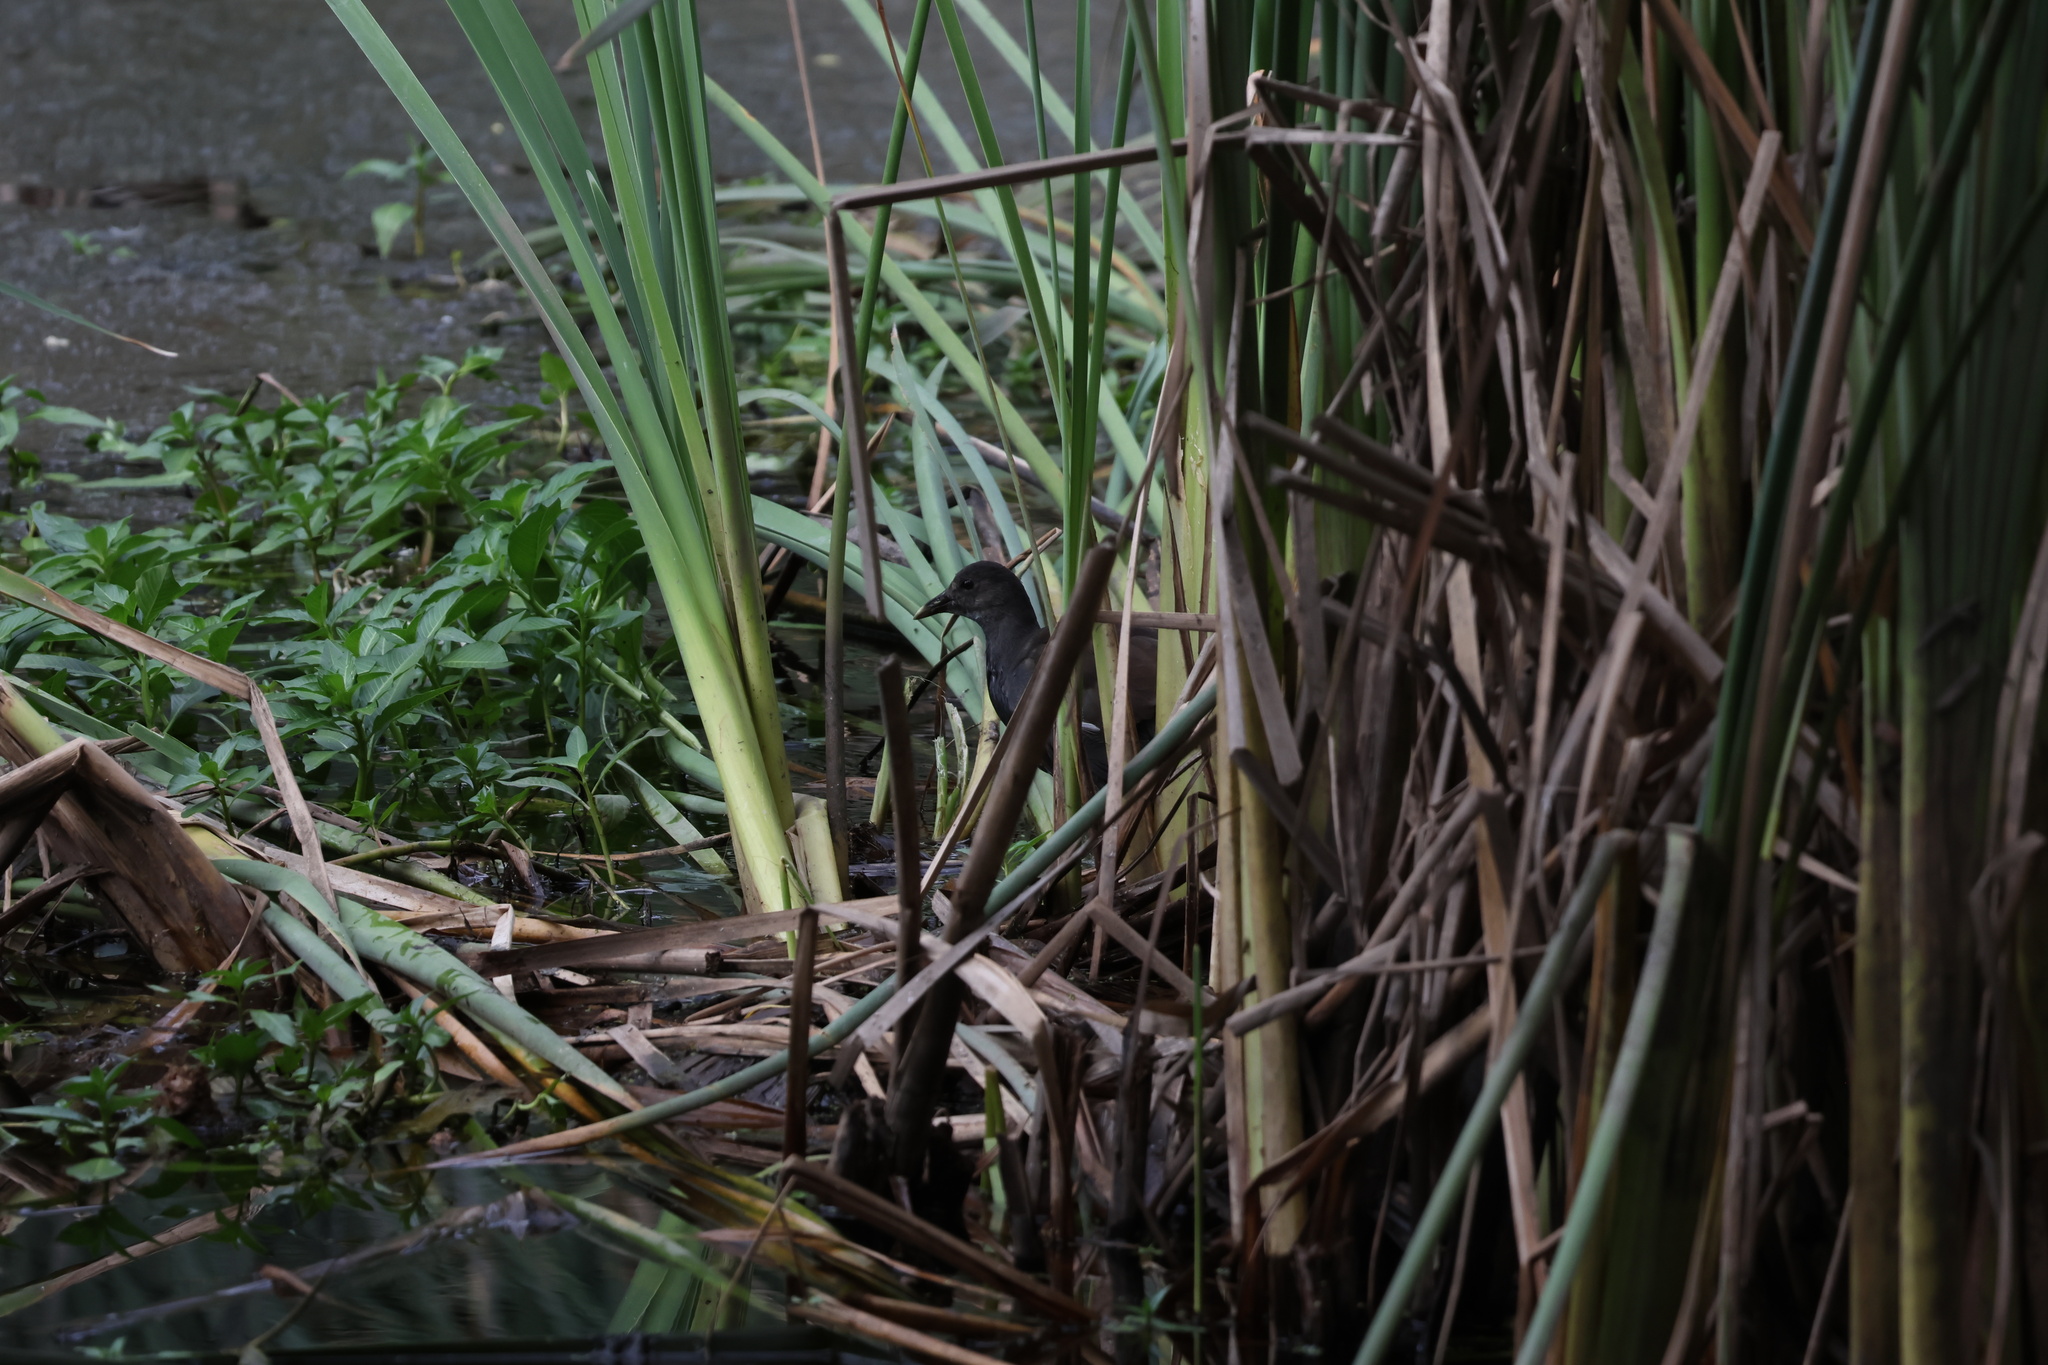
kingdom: Animalia
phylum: Chordata
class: Aves
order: Gruiformes
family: Rallidae
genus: Gallinula
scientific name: Gallinula chloropus
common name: Common moorhen
